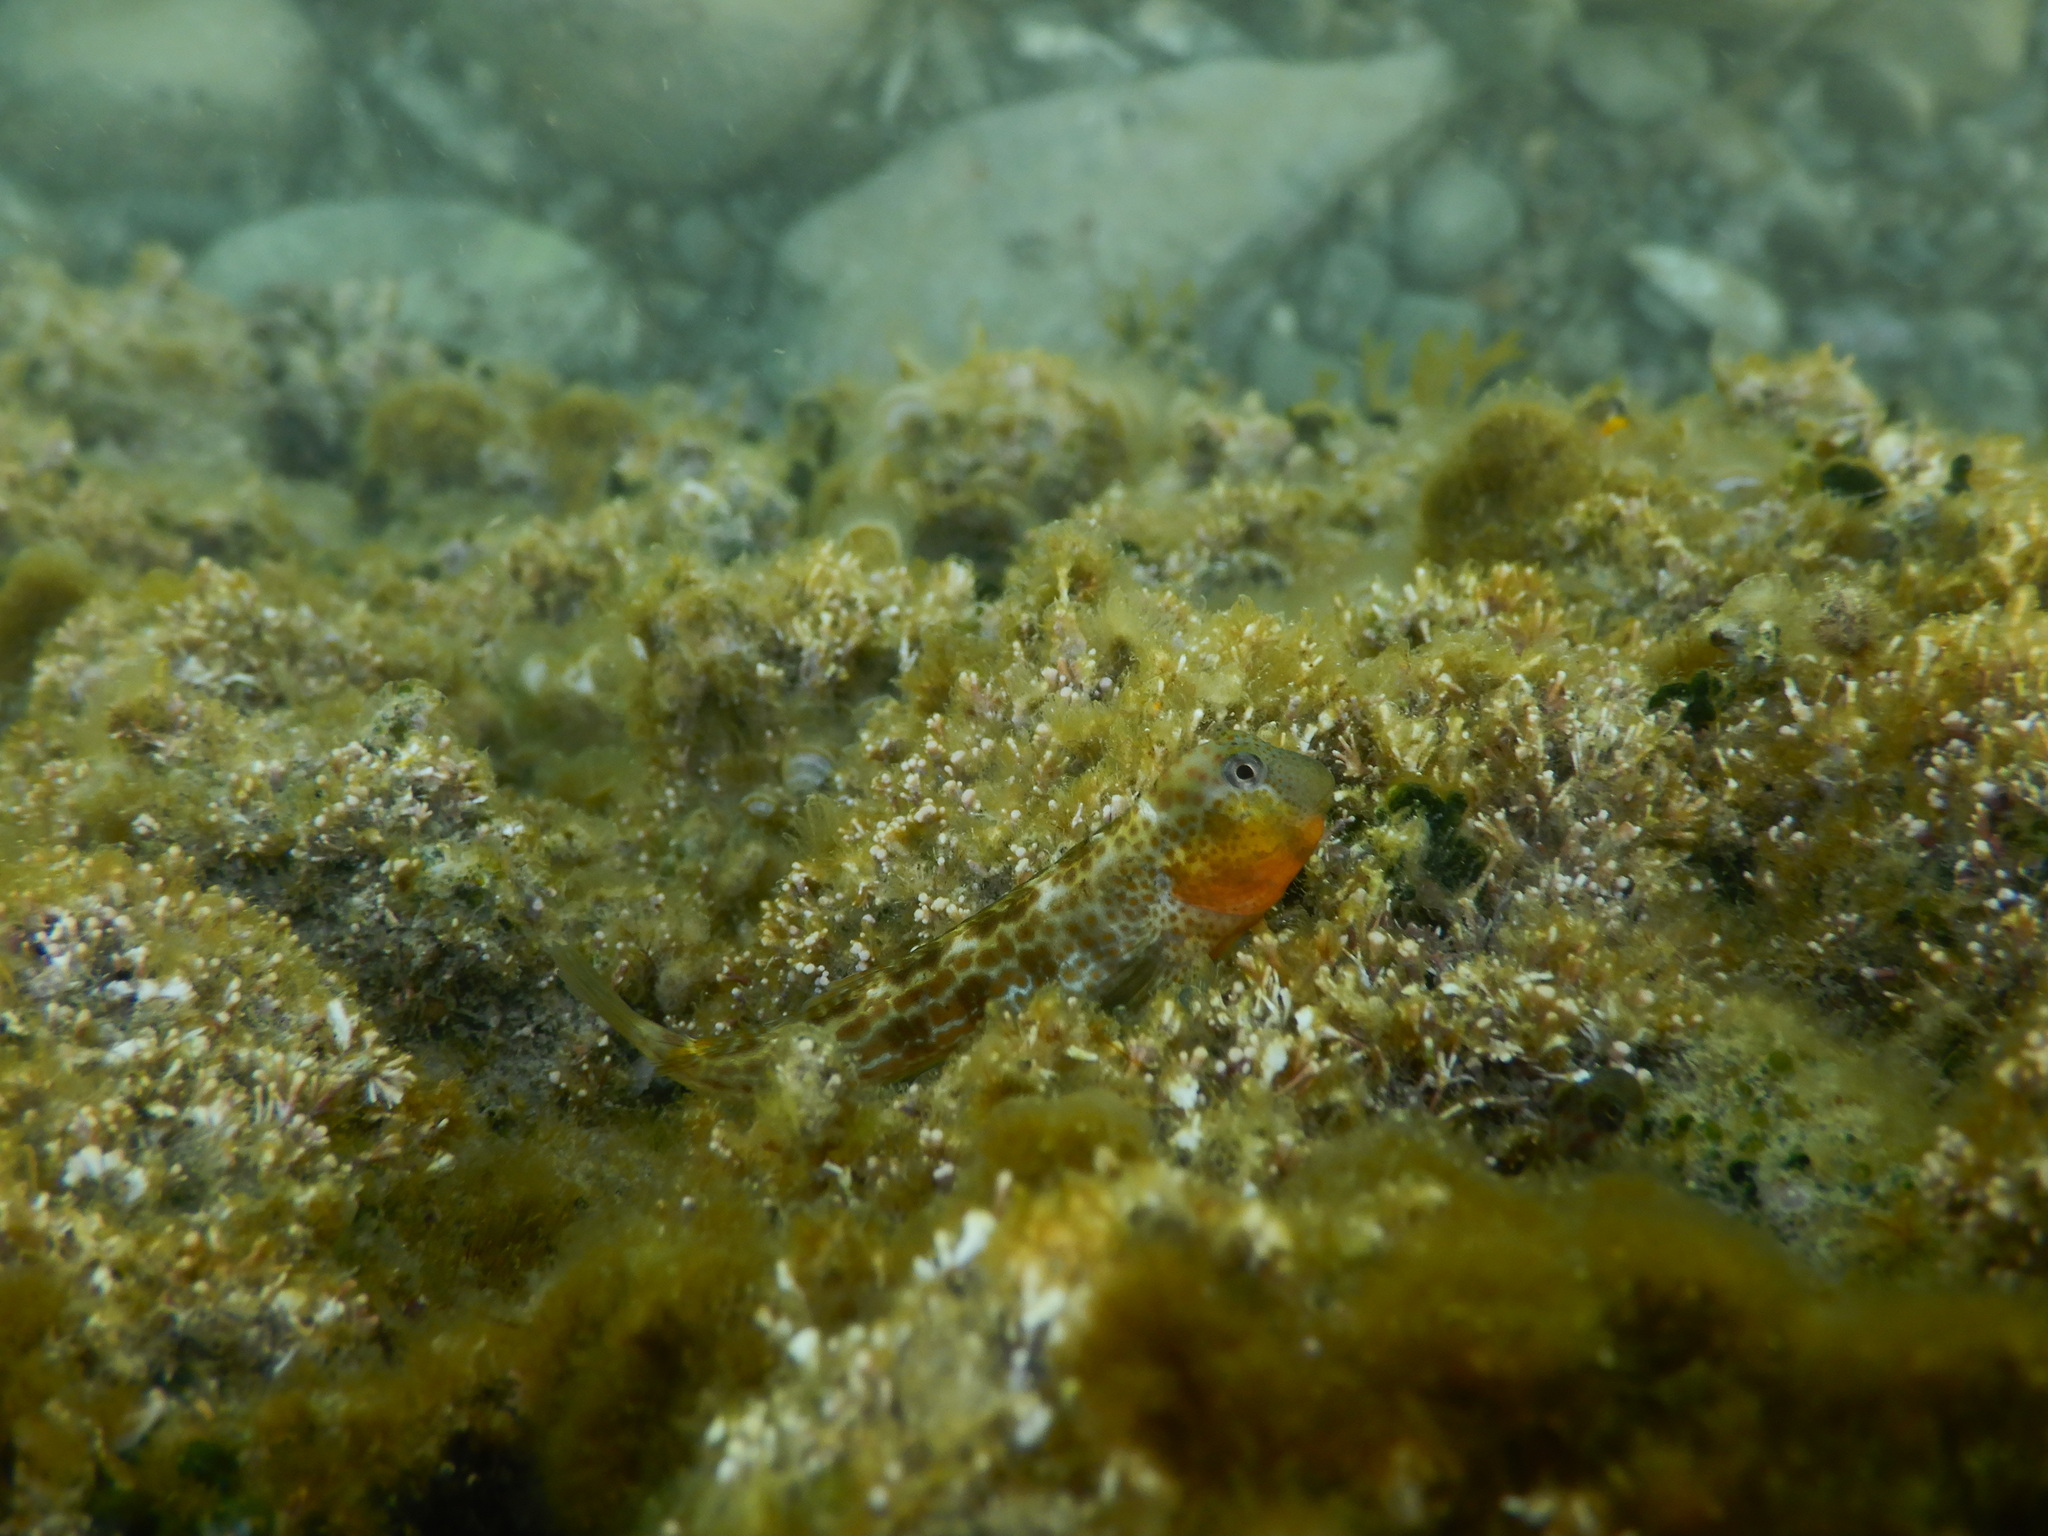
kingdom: Animalia
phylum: Chordata
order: Perciformes
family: Blenniidae
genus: Microlipophrys
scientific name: Microlipophrys canevae
